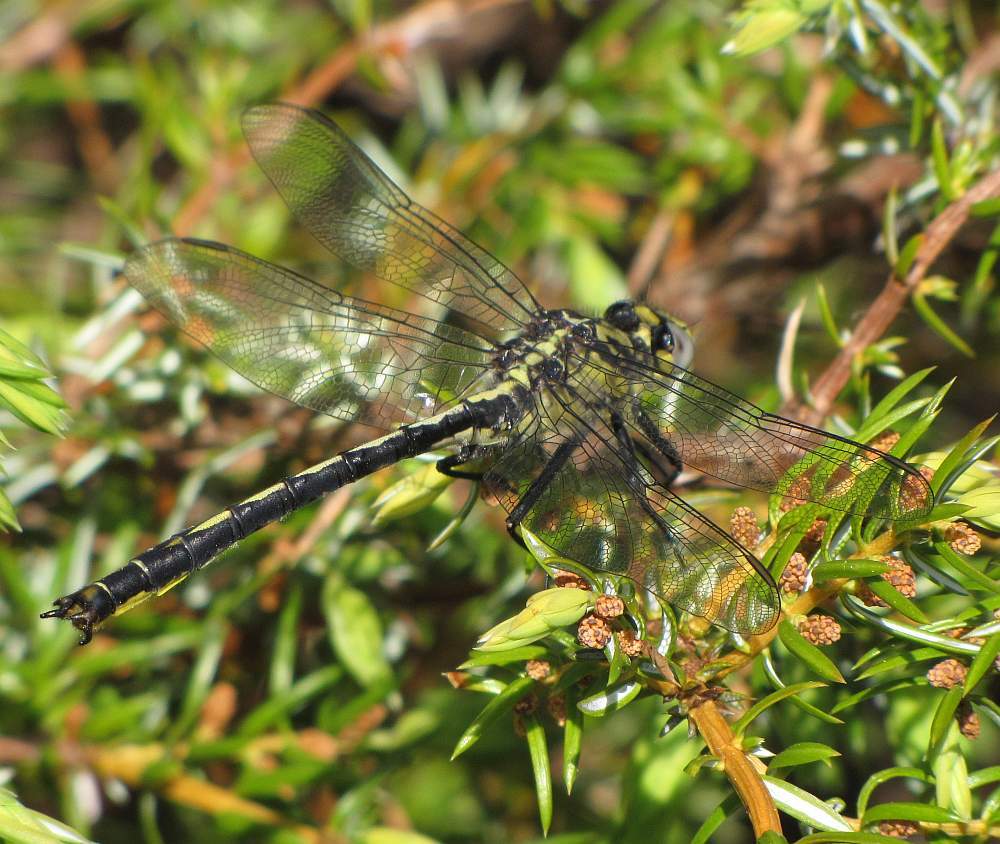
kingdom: Animalia
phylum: Arthropoda
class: Insecta
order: Odonata
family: Gomphidae
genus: Arigomphus
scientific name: Arigomphus cornutus
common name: Horned clubtail
